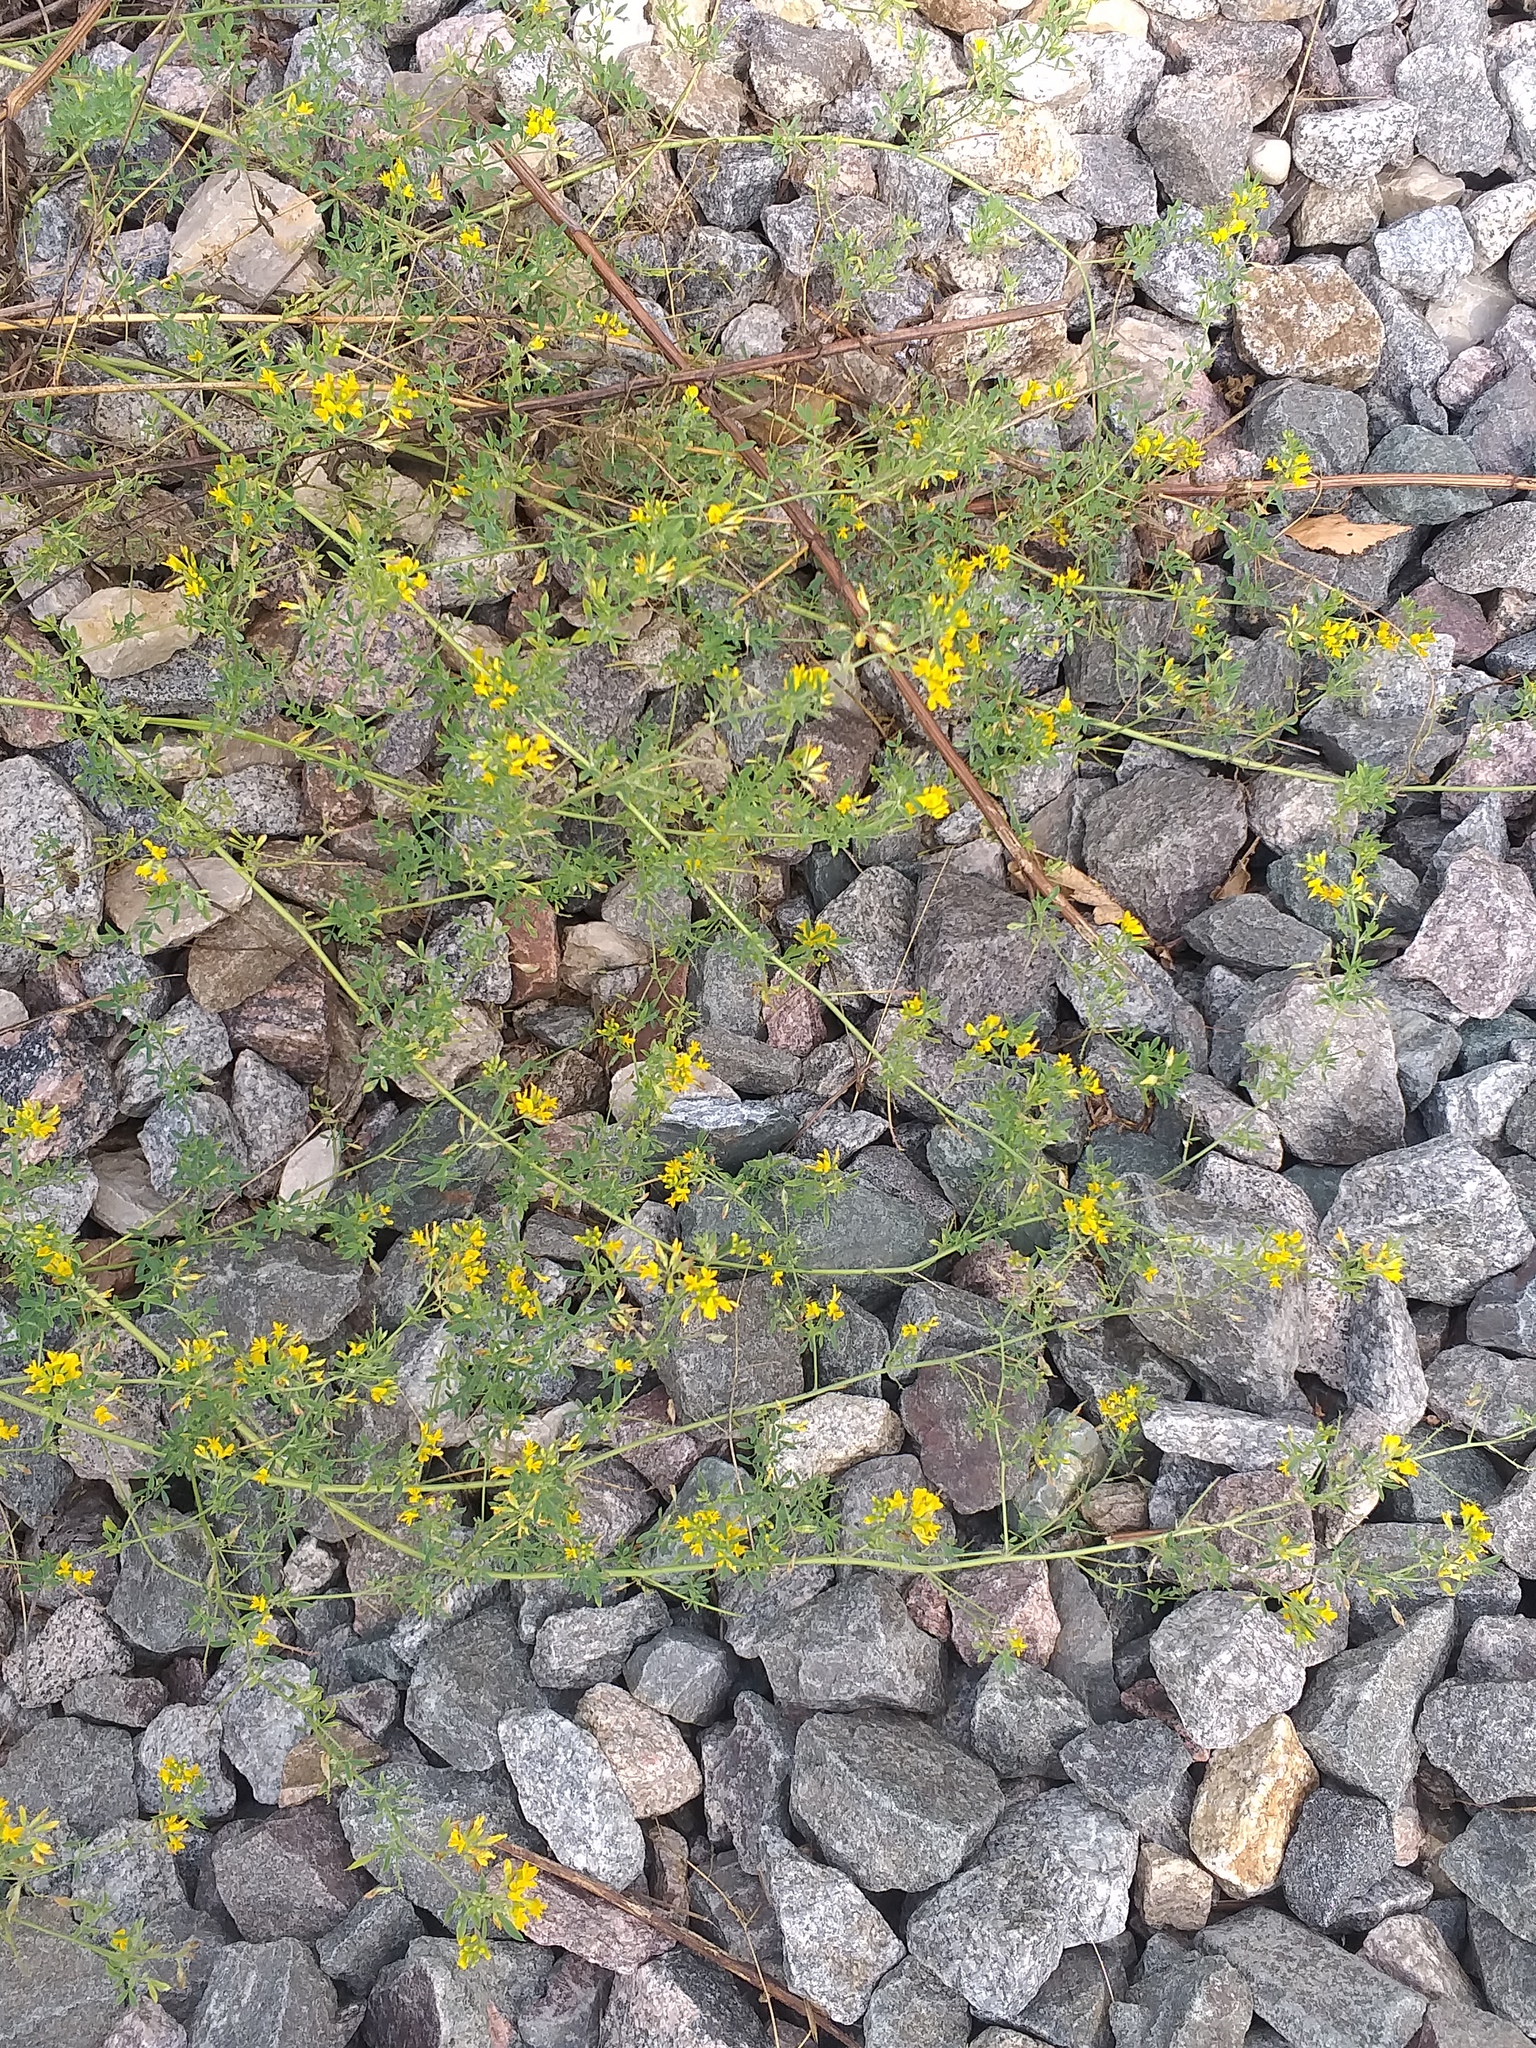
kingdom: Plantae
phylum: Tracheophyta
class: Magnoliopsida
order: Fabales
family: Fabaceae
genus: Medicago
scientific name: Medicago falcata
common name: Sickle medick
